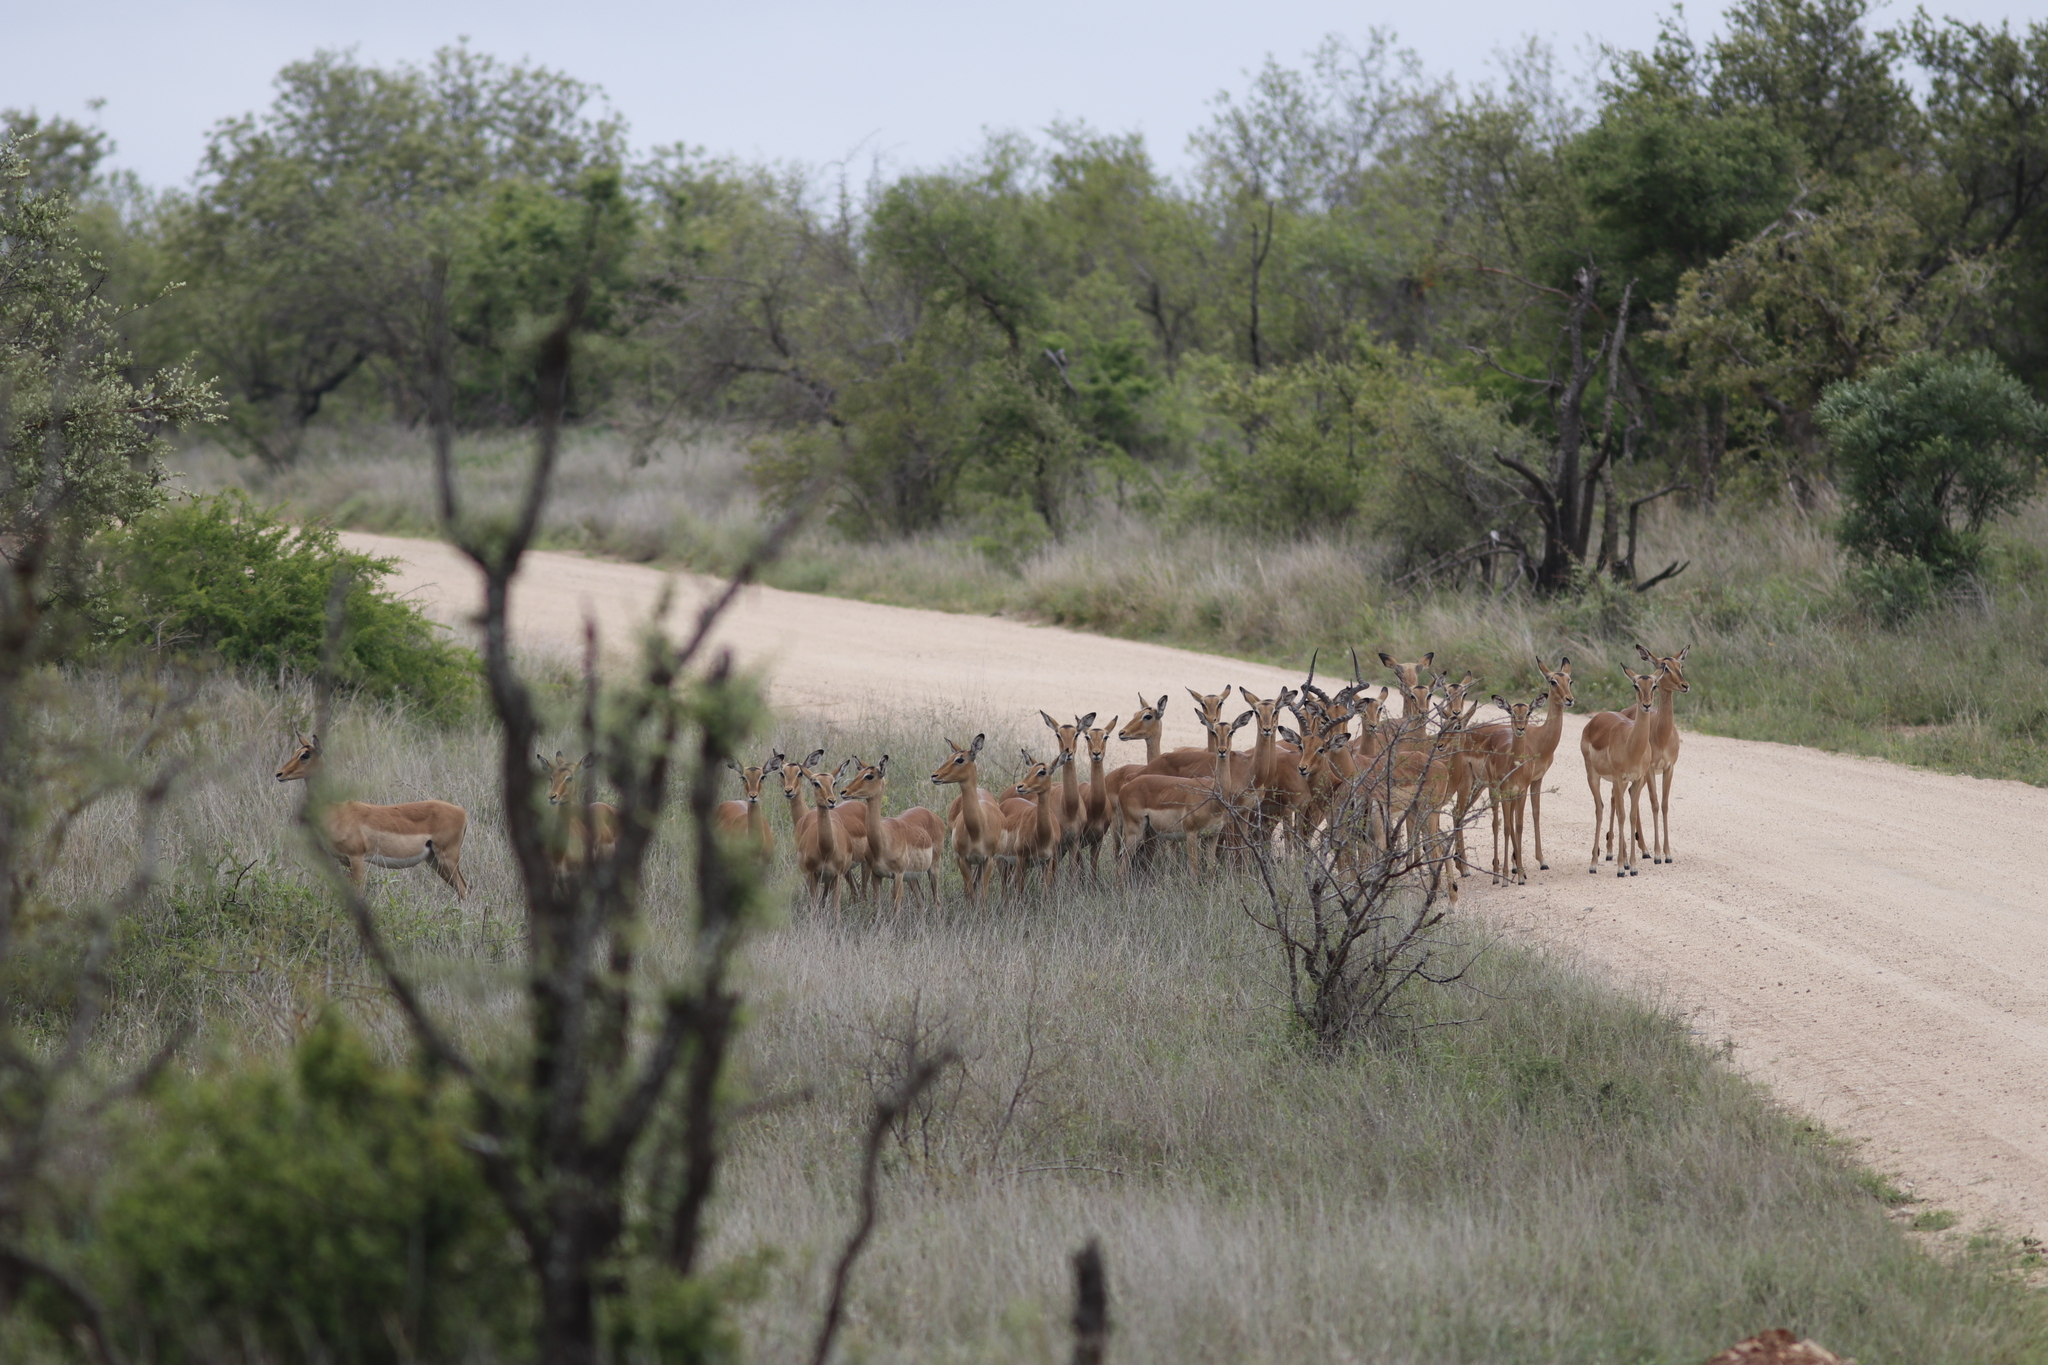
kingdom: Animalia
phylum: Chordata
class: Mammalia
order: Artiodactyla
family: Bovidae
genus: Aepyceros
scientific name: Aepyceros melampus
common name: Impala
